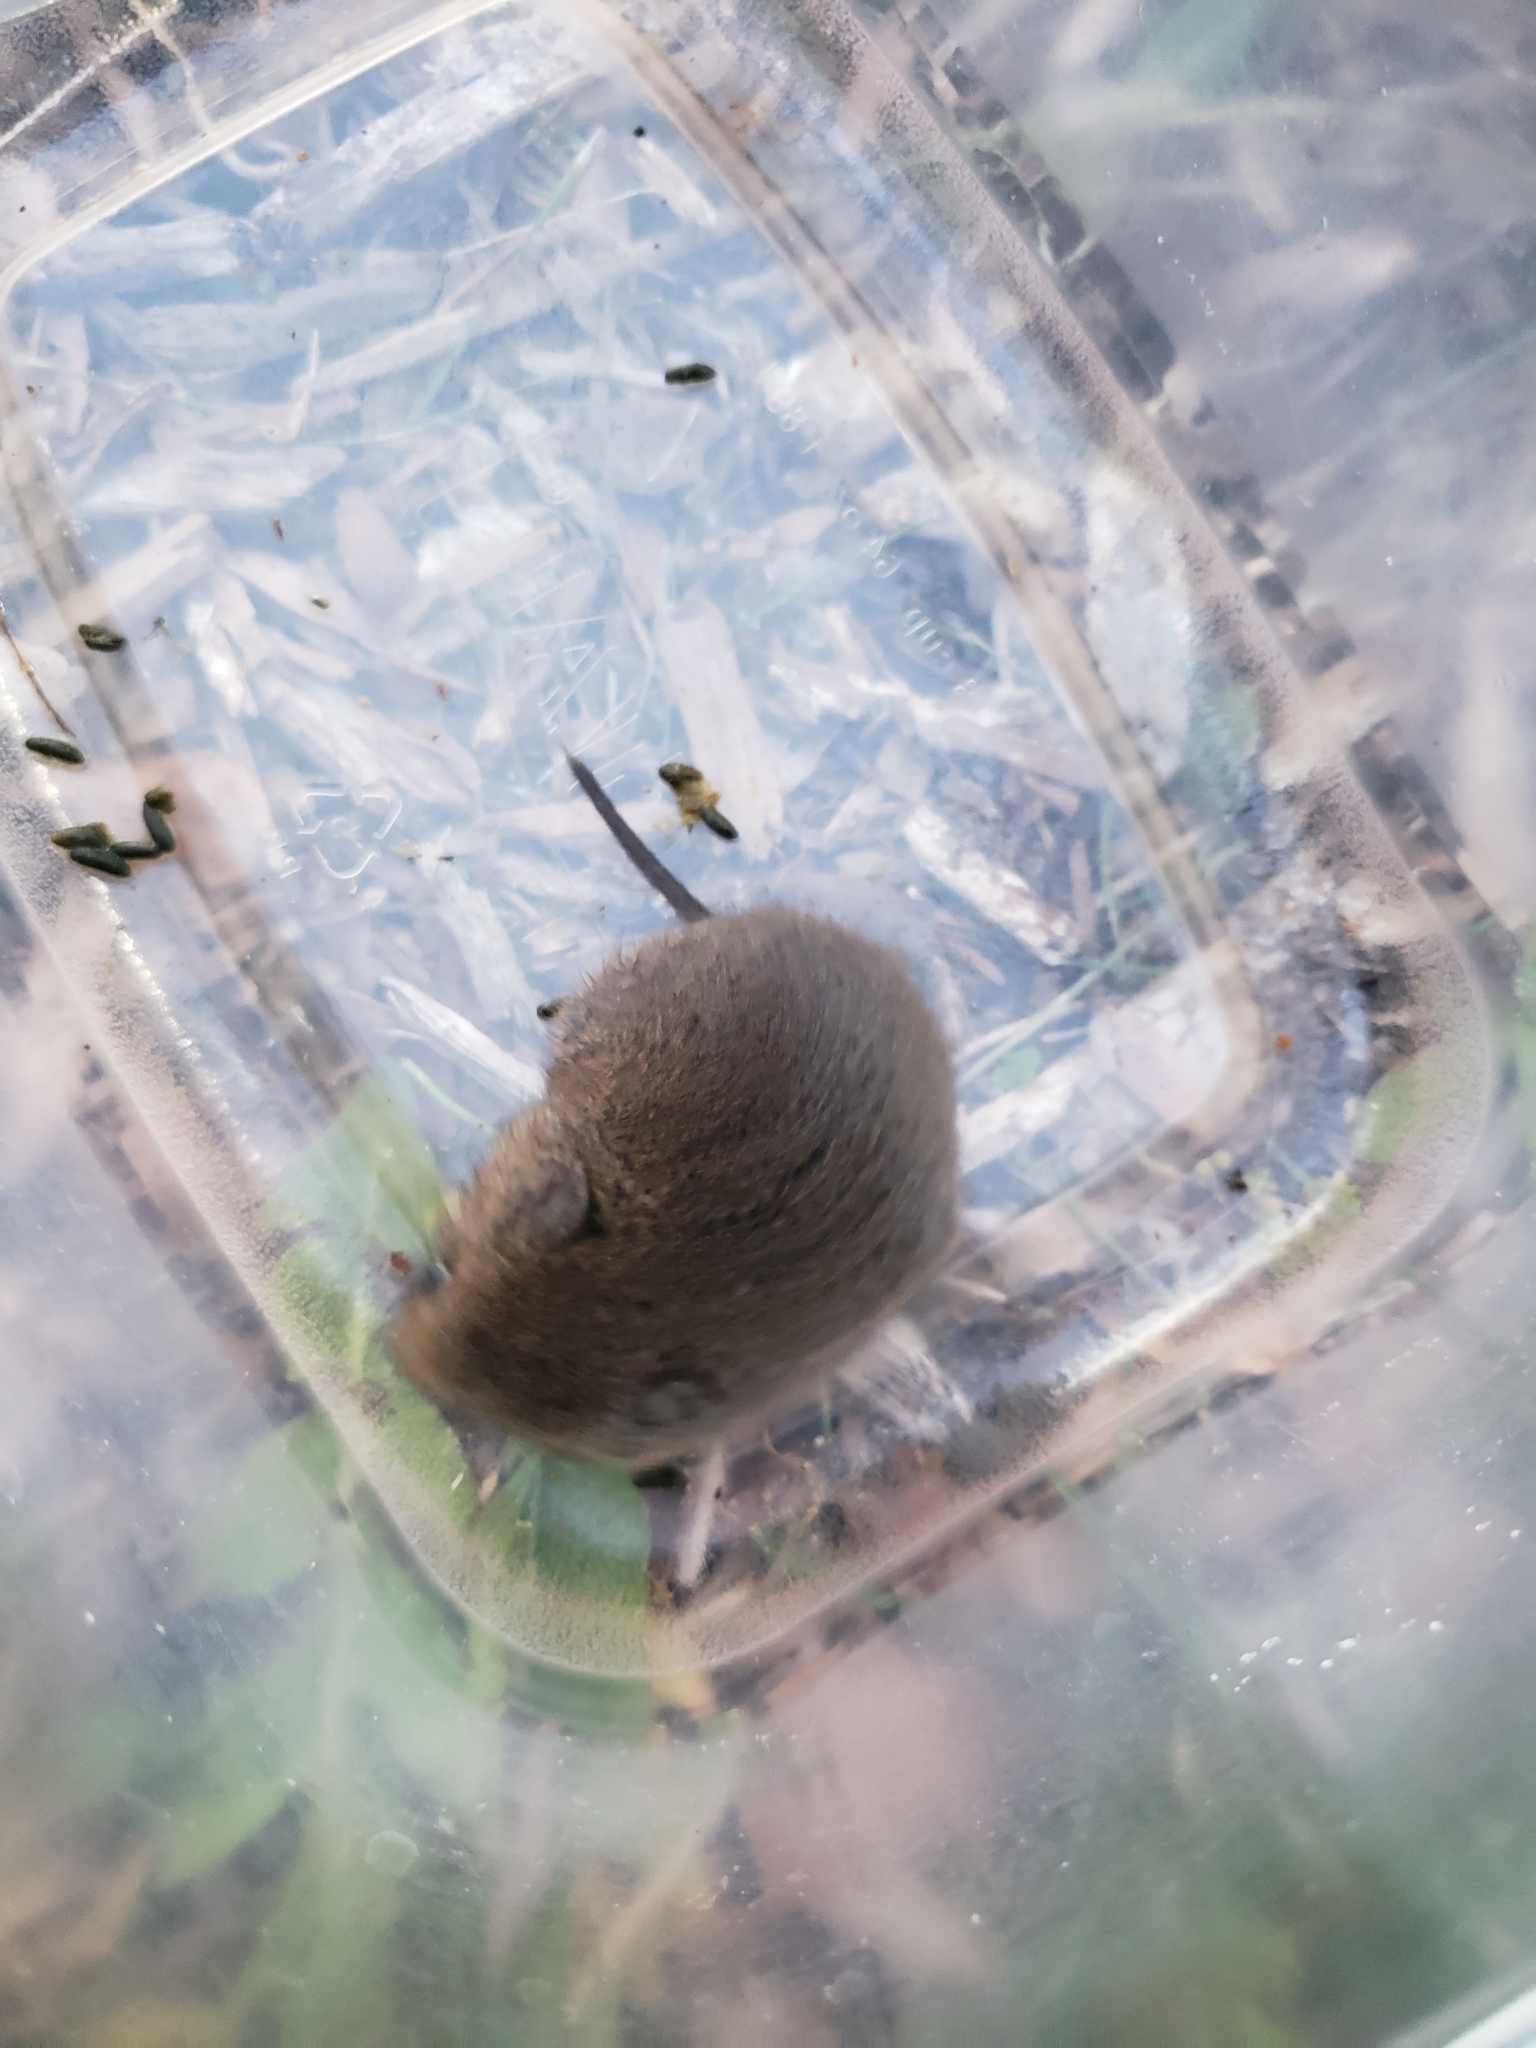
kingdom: Animalia
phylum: Chordata
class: Mammalia
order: Rodentia
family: Cricetidae
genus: Microtus
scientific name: Microtus pennsylvanicus
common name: Meadow vole
